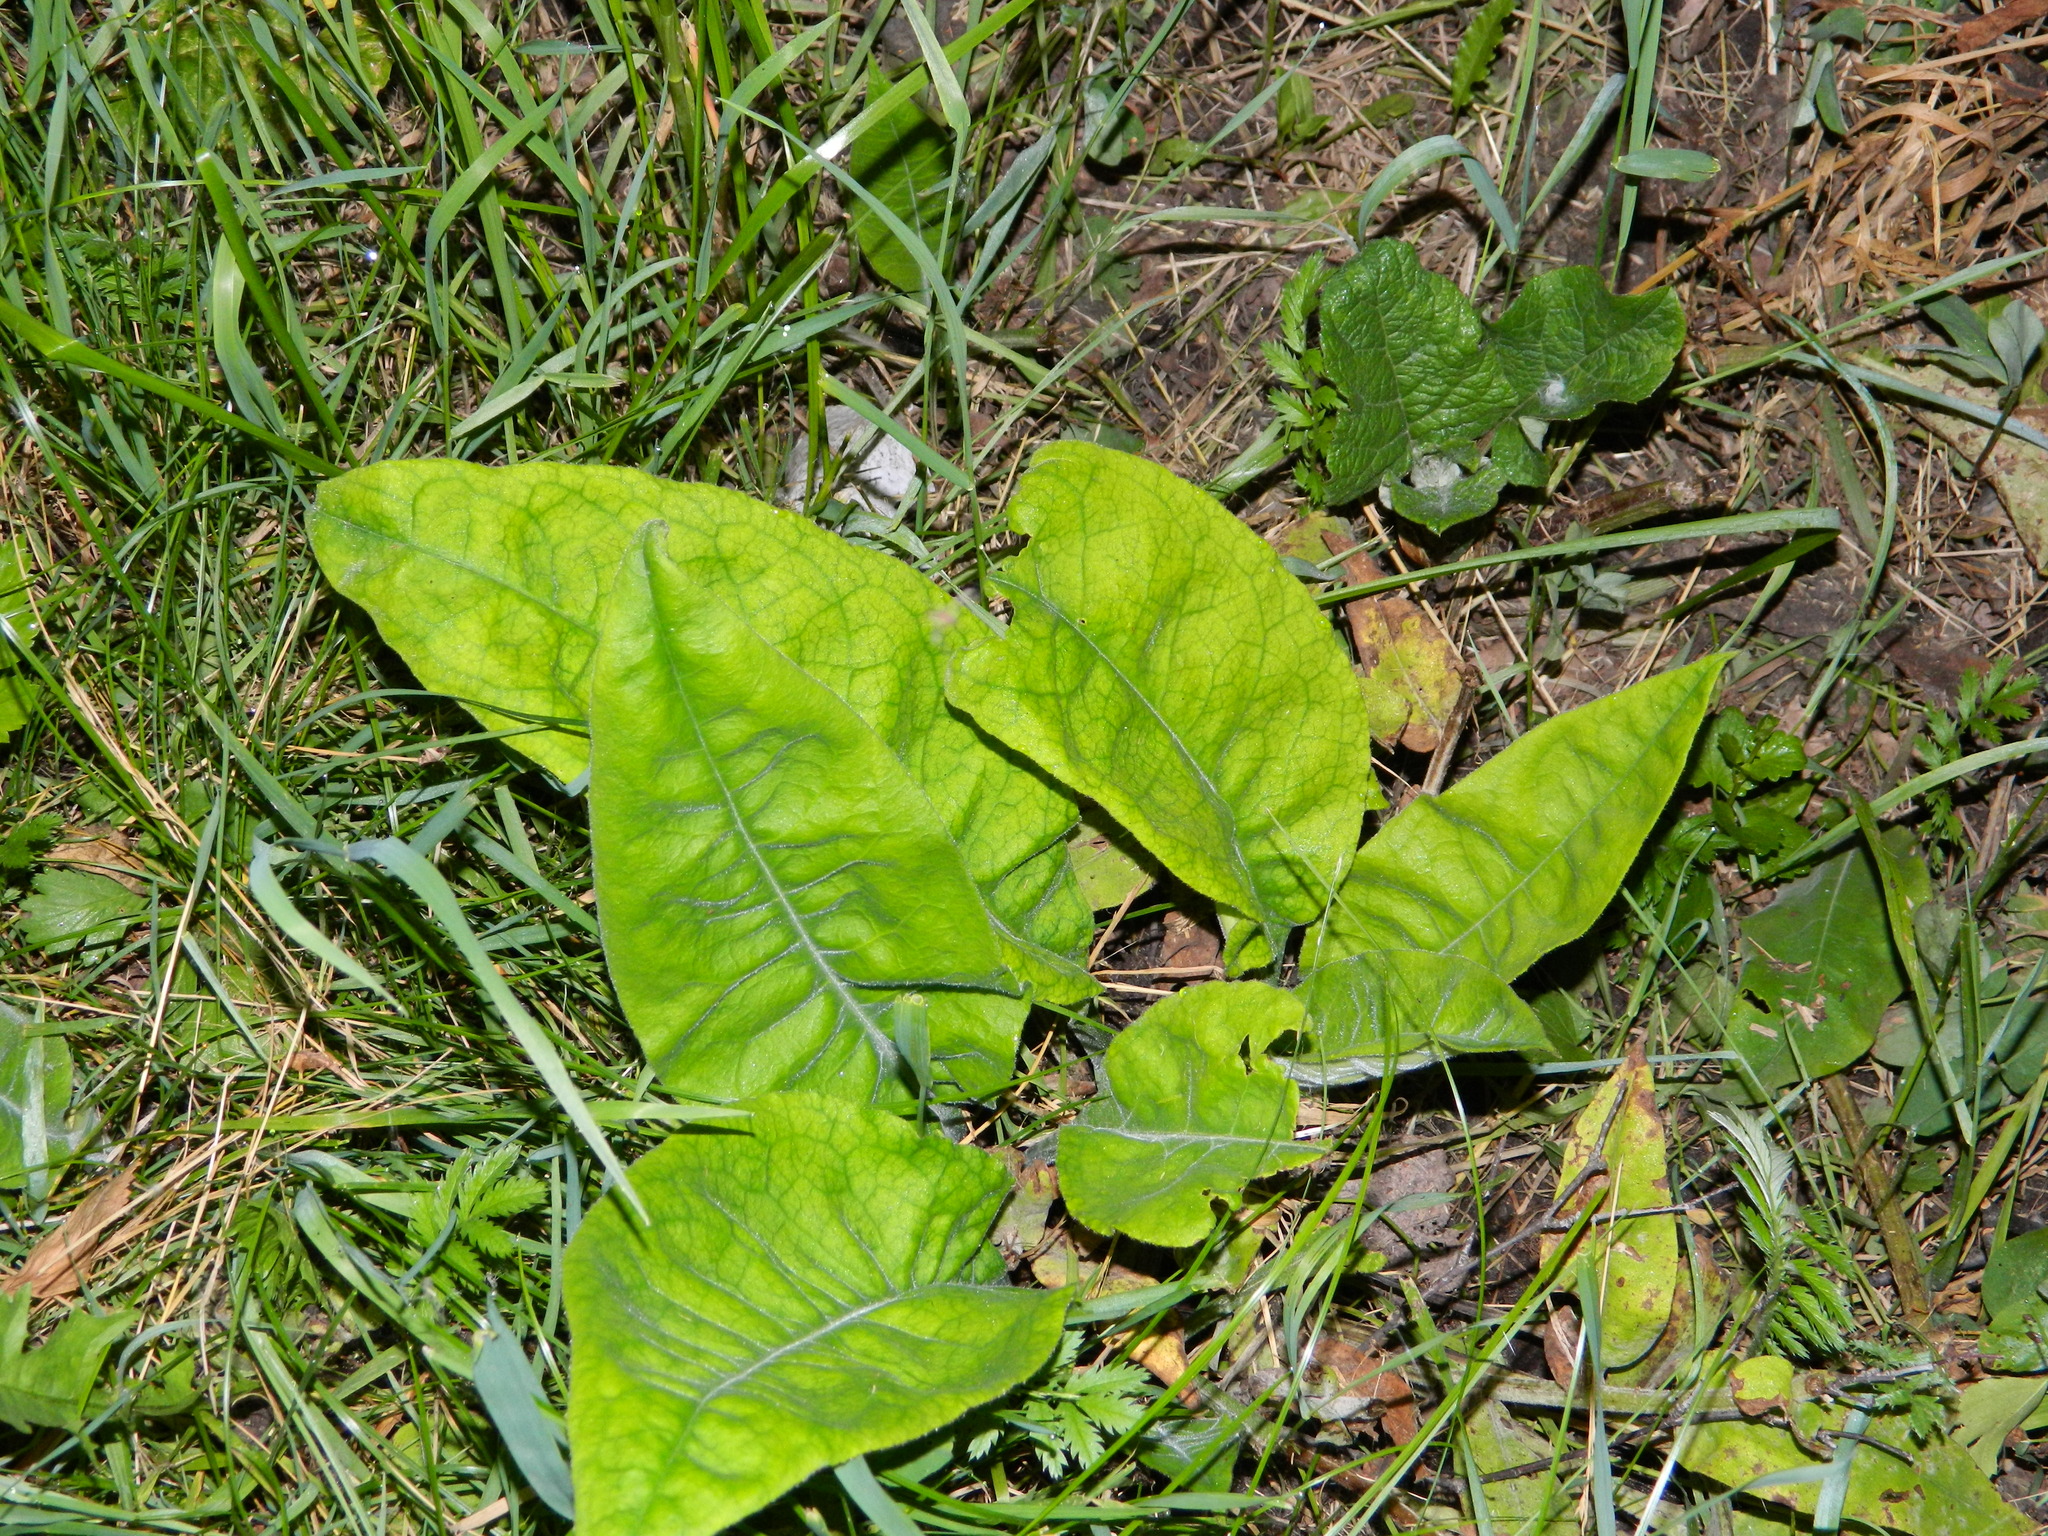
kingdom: Plantae
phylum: Tracheophyta
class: Magnoliopsida
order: Boraginales
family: Boraginaceae
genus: Pulmonaria
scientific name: Pulmonaria mollis
